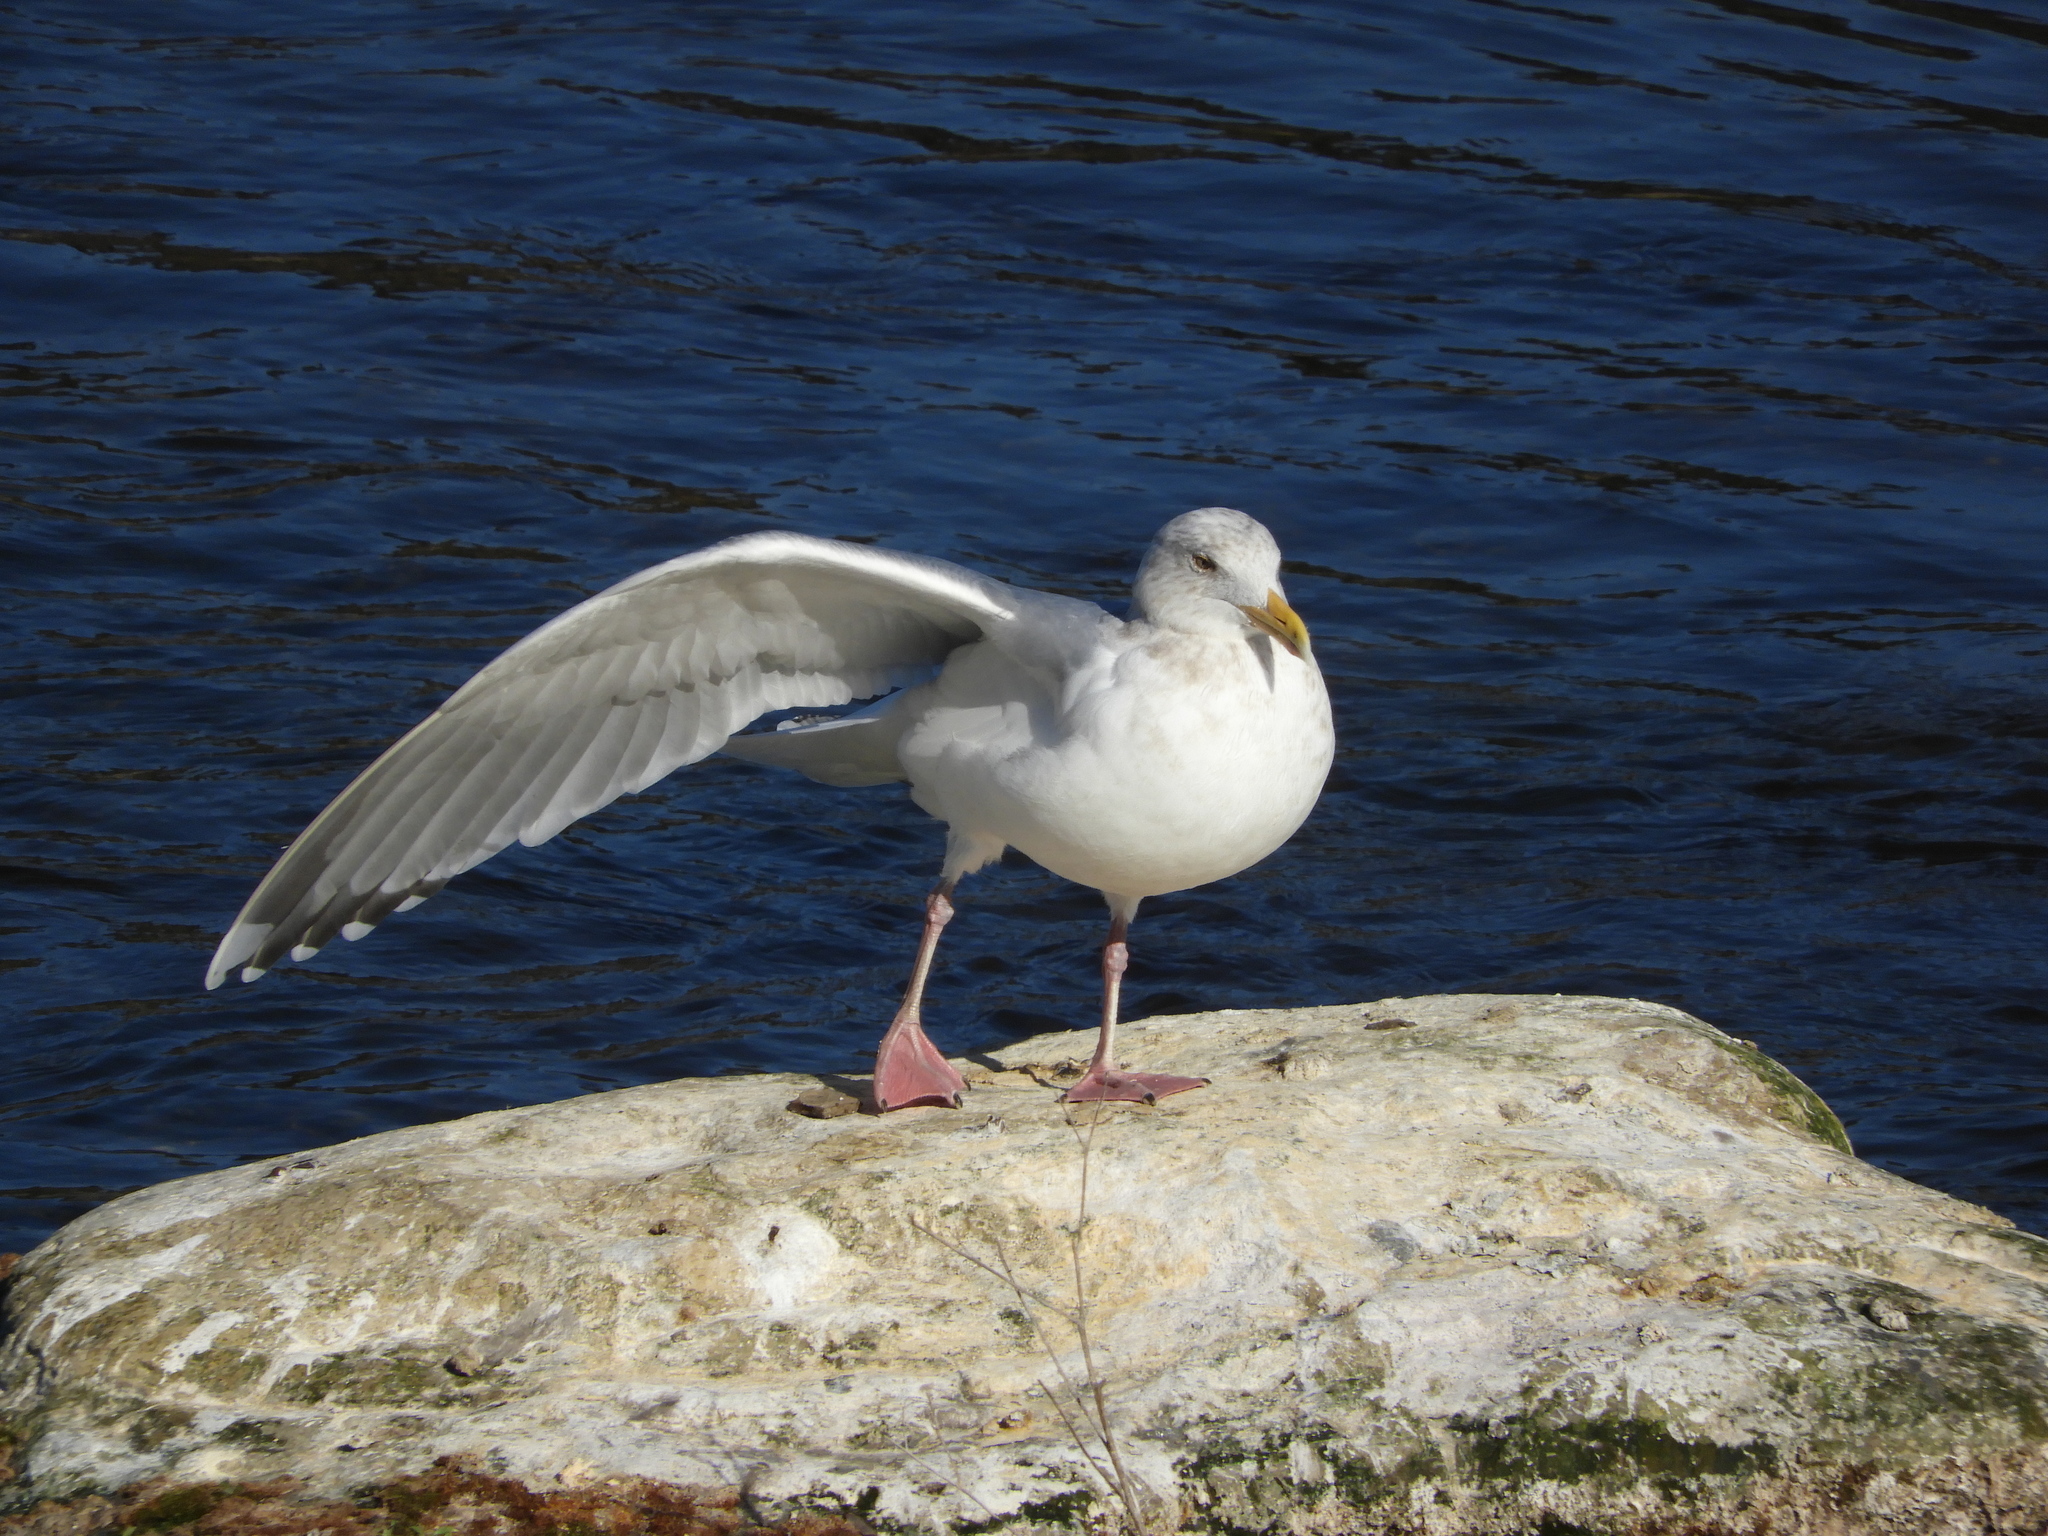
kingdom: Animalia
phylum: Chordata
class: Aves
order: Charadriiformes
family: Laridae
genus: Larus
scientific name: Larus
